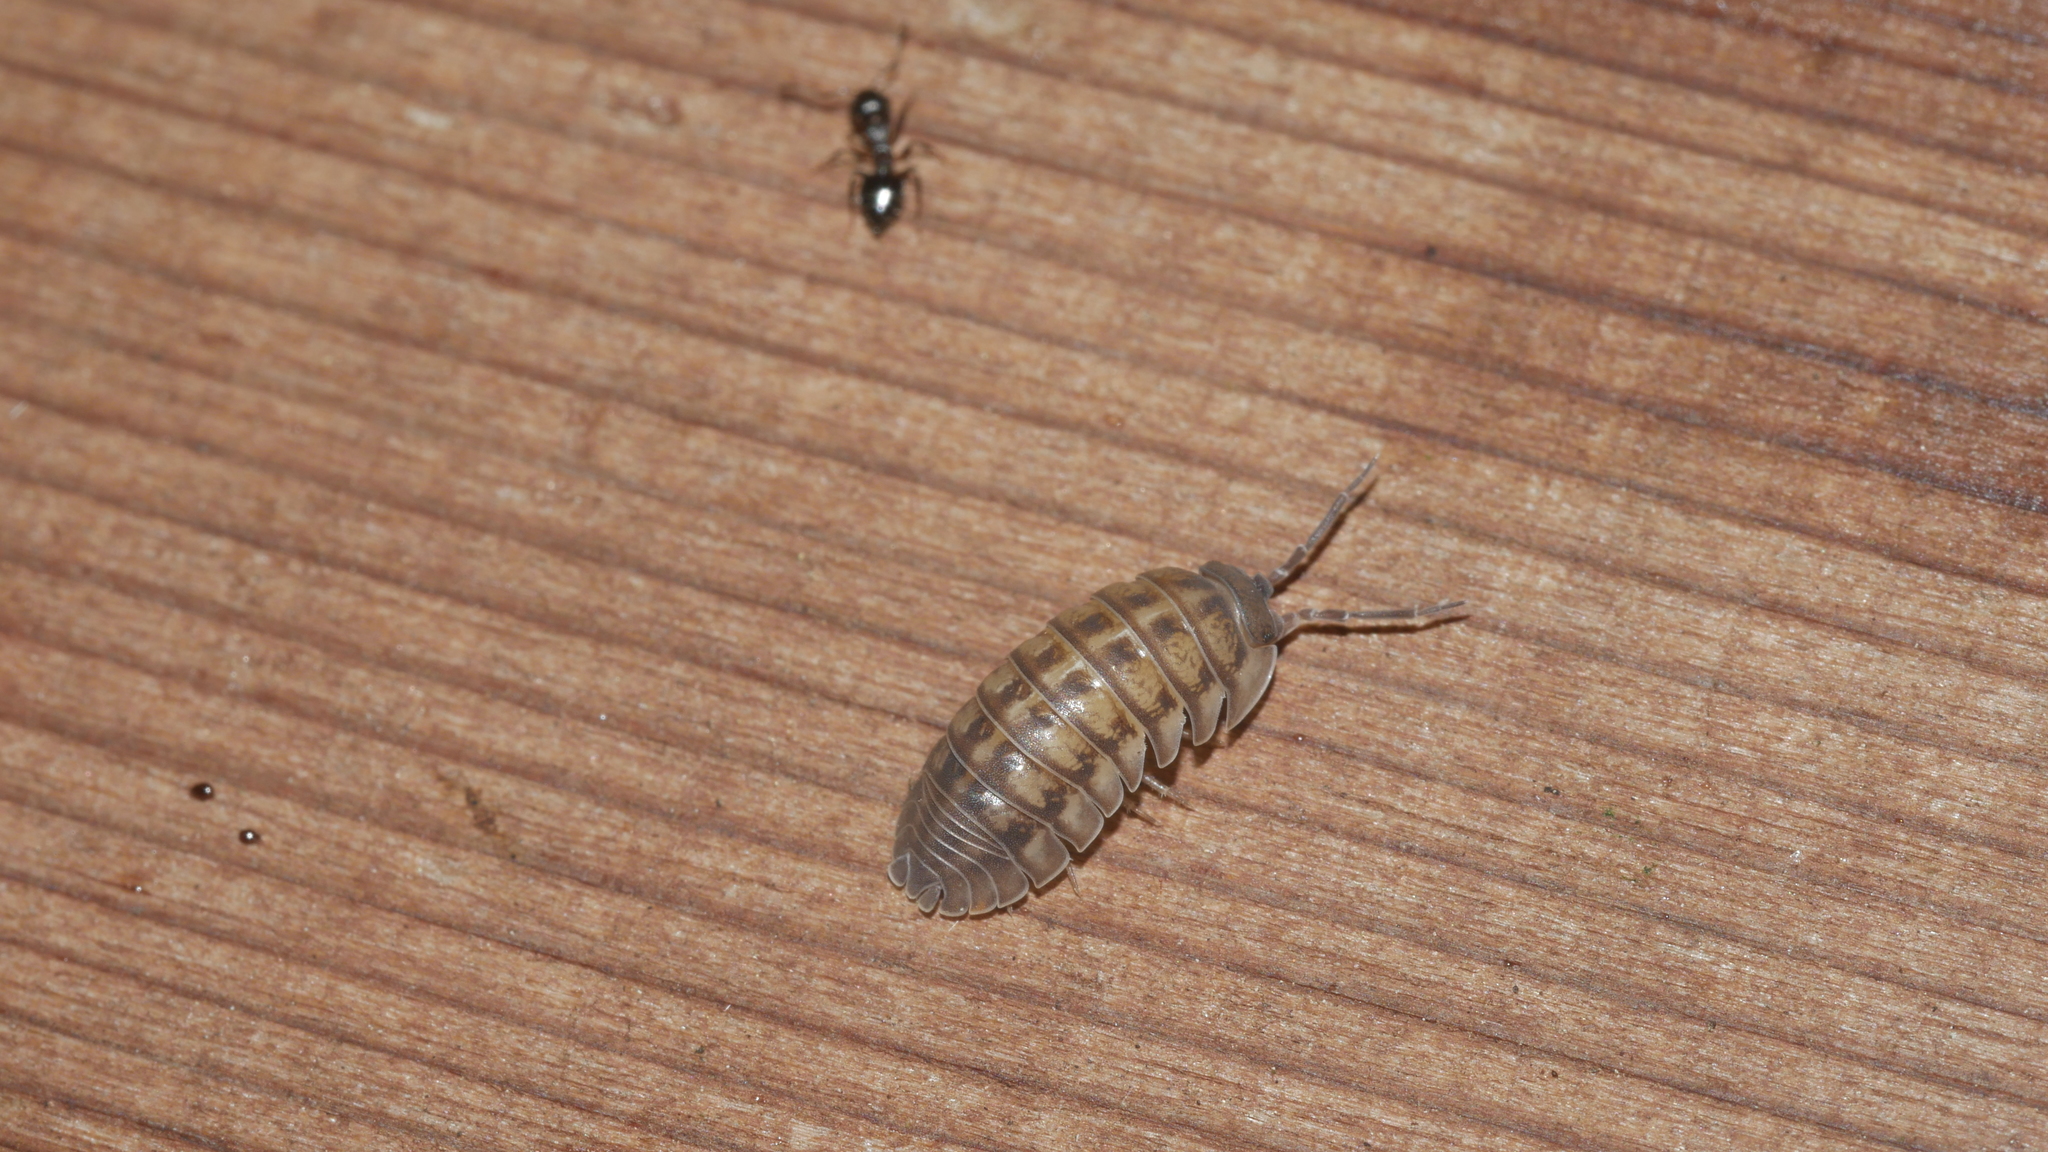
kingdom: Animalia
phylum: Arthropoda
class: Malacostraca
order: Isopoda
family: Armadillidiidae
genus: Armadillidium
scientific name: Armadillidium nasatum
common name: Isopod
